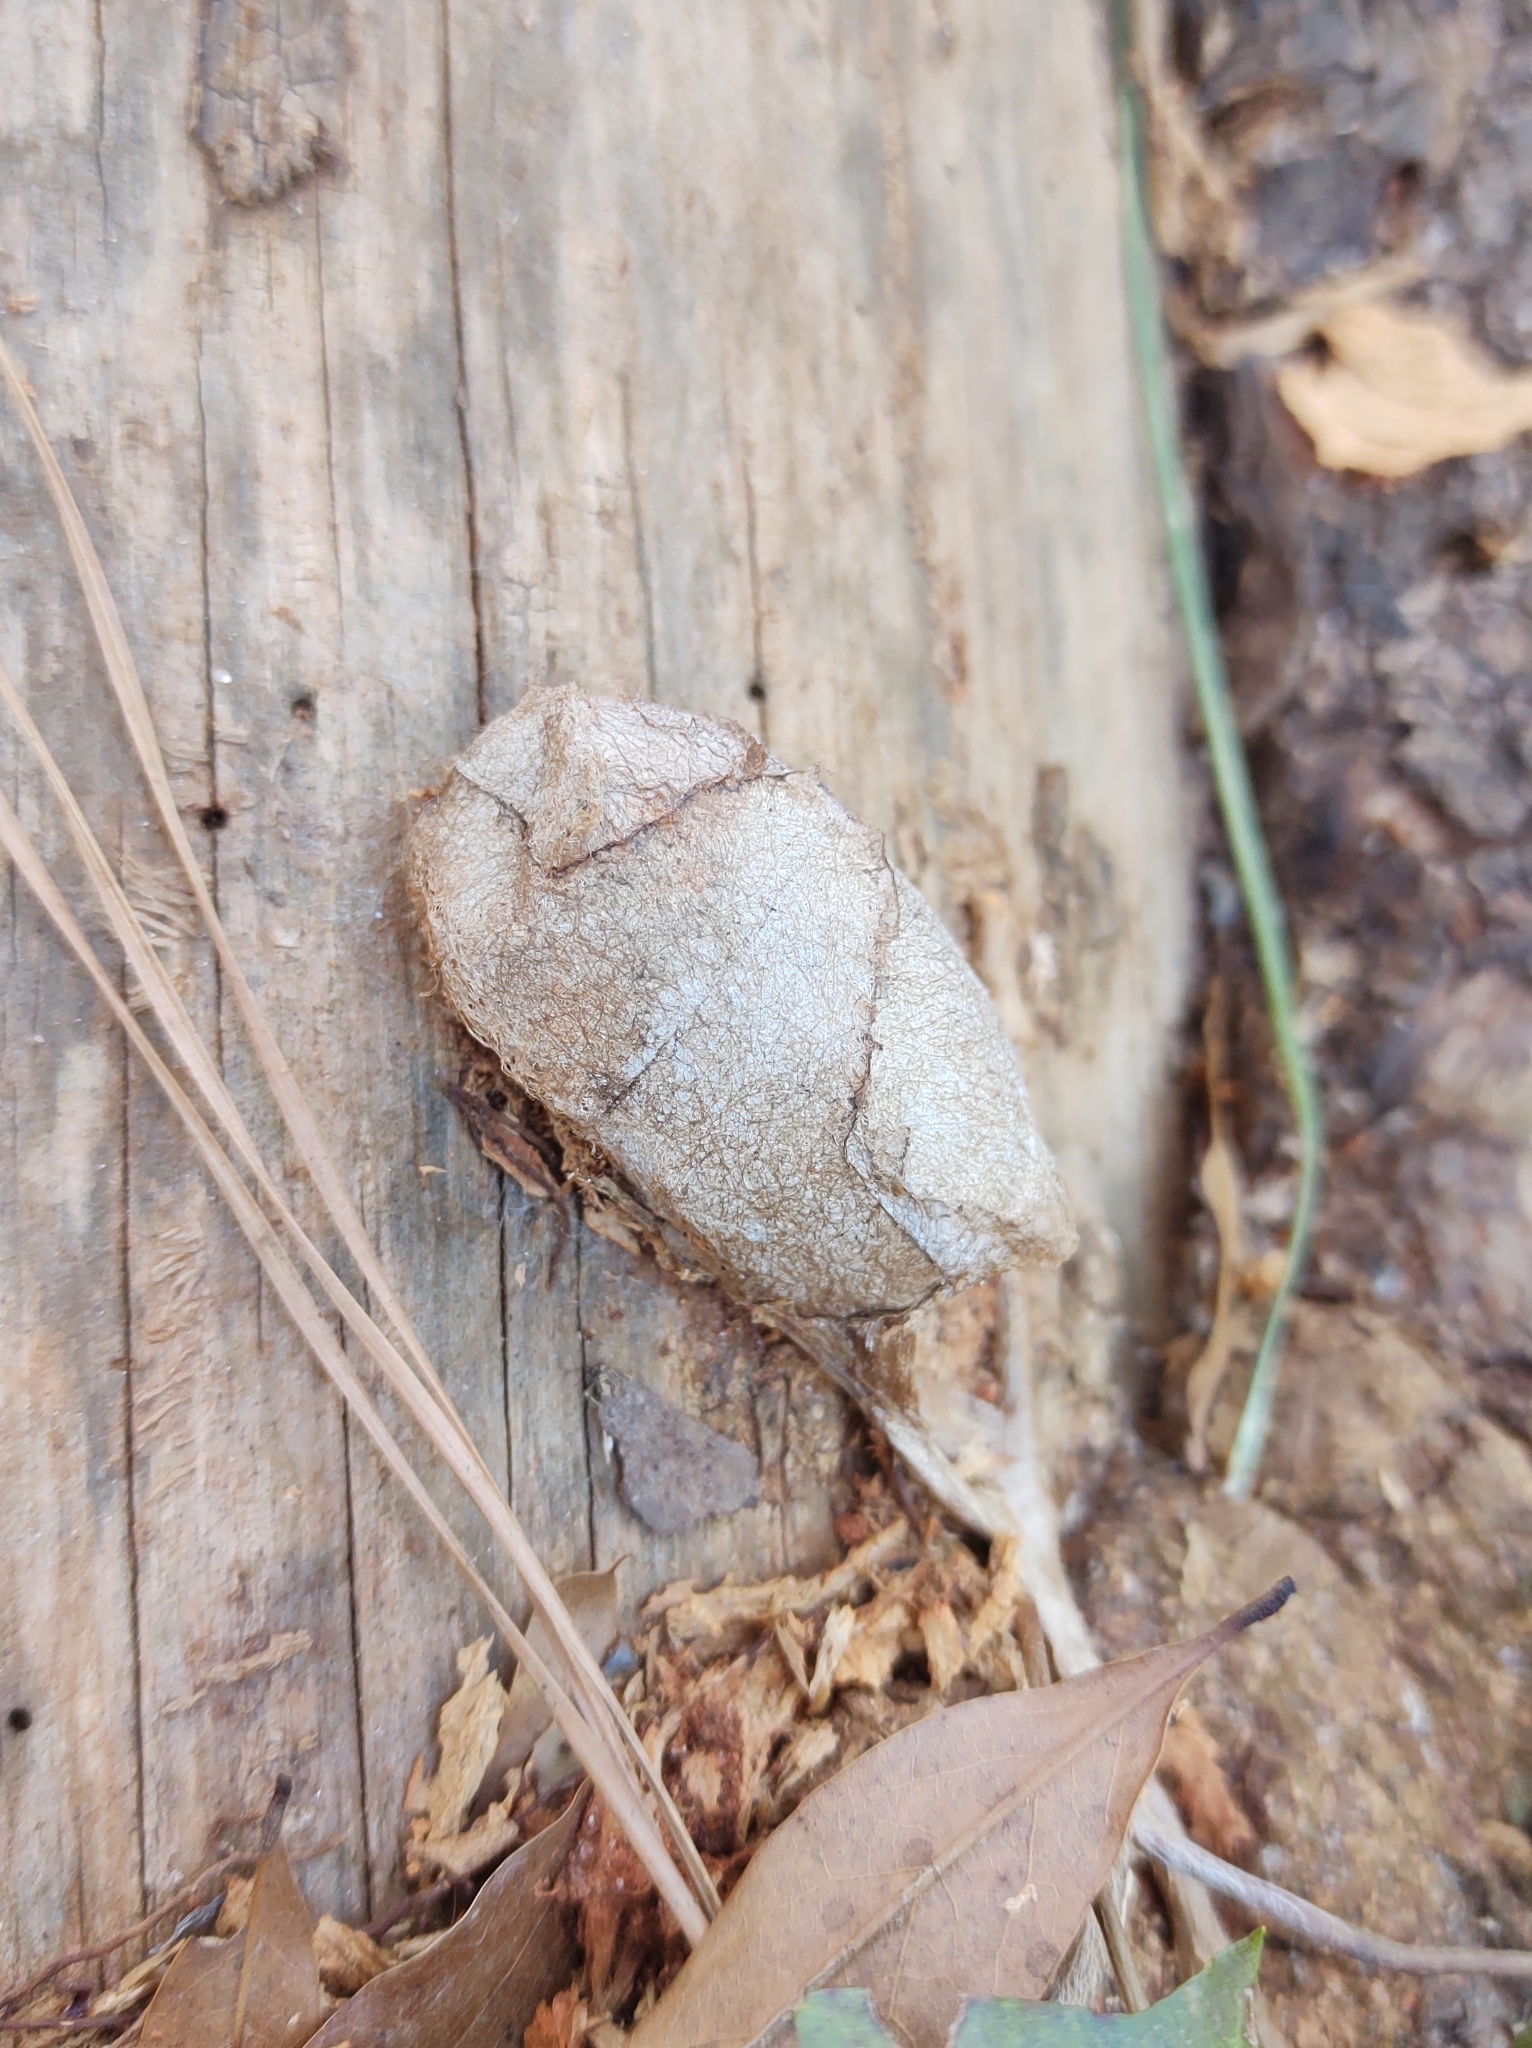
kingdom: Animalia
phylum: Arthropoda
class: Insecta
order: Lepidoptera
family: Saturniidae
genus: Antheraea
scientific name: Antheraea polyphemus
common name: Polyphemus moth
